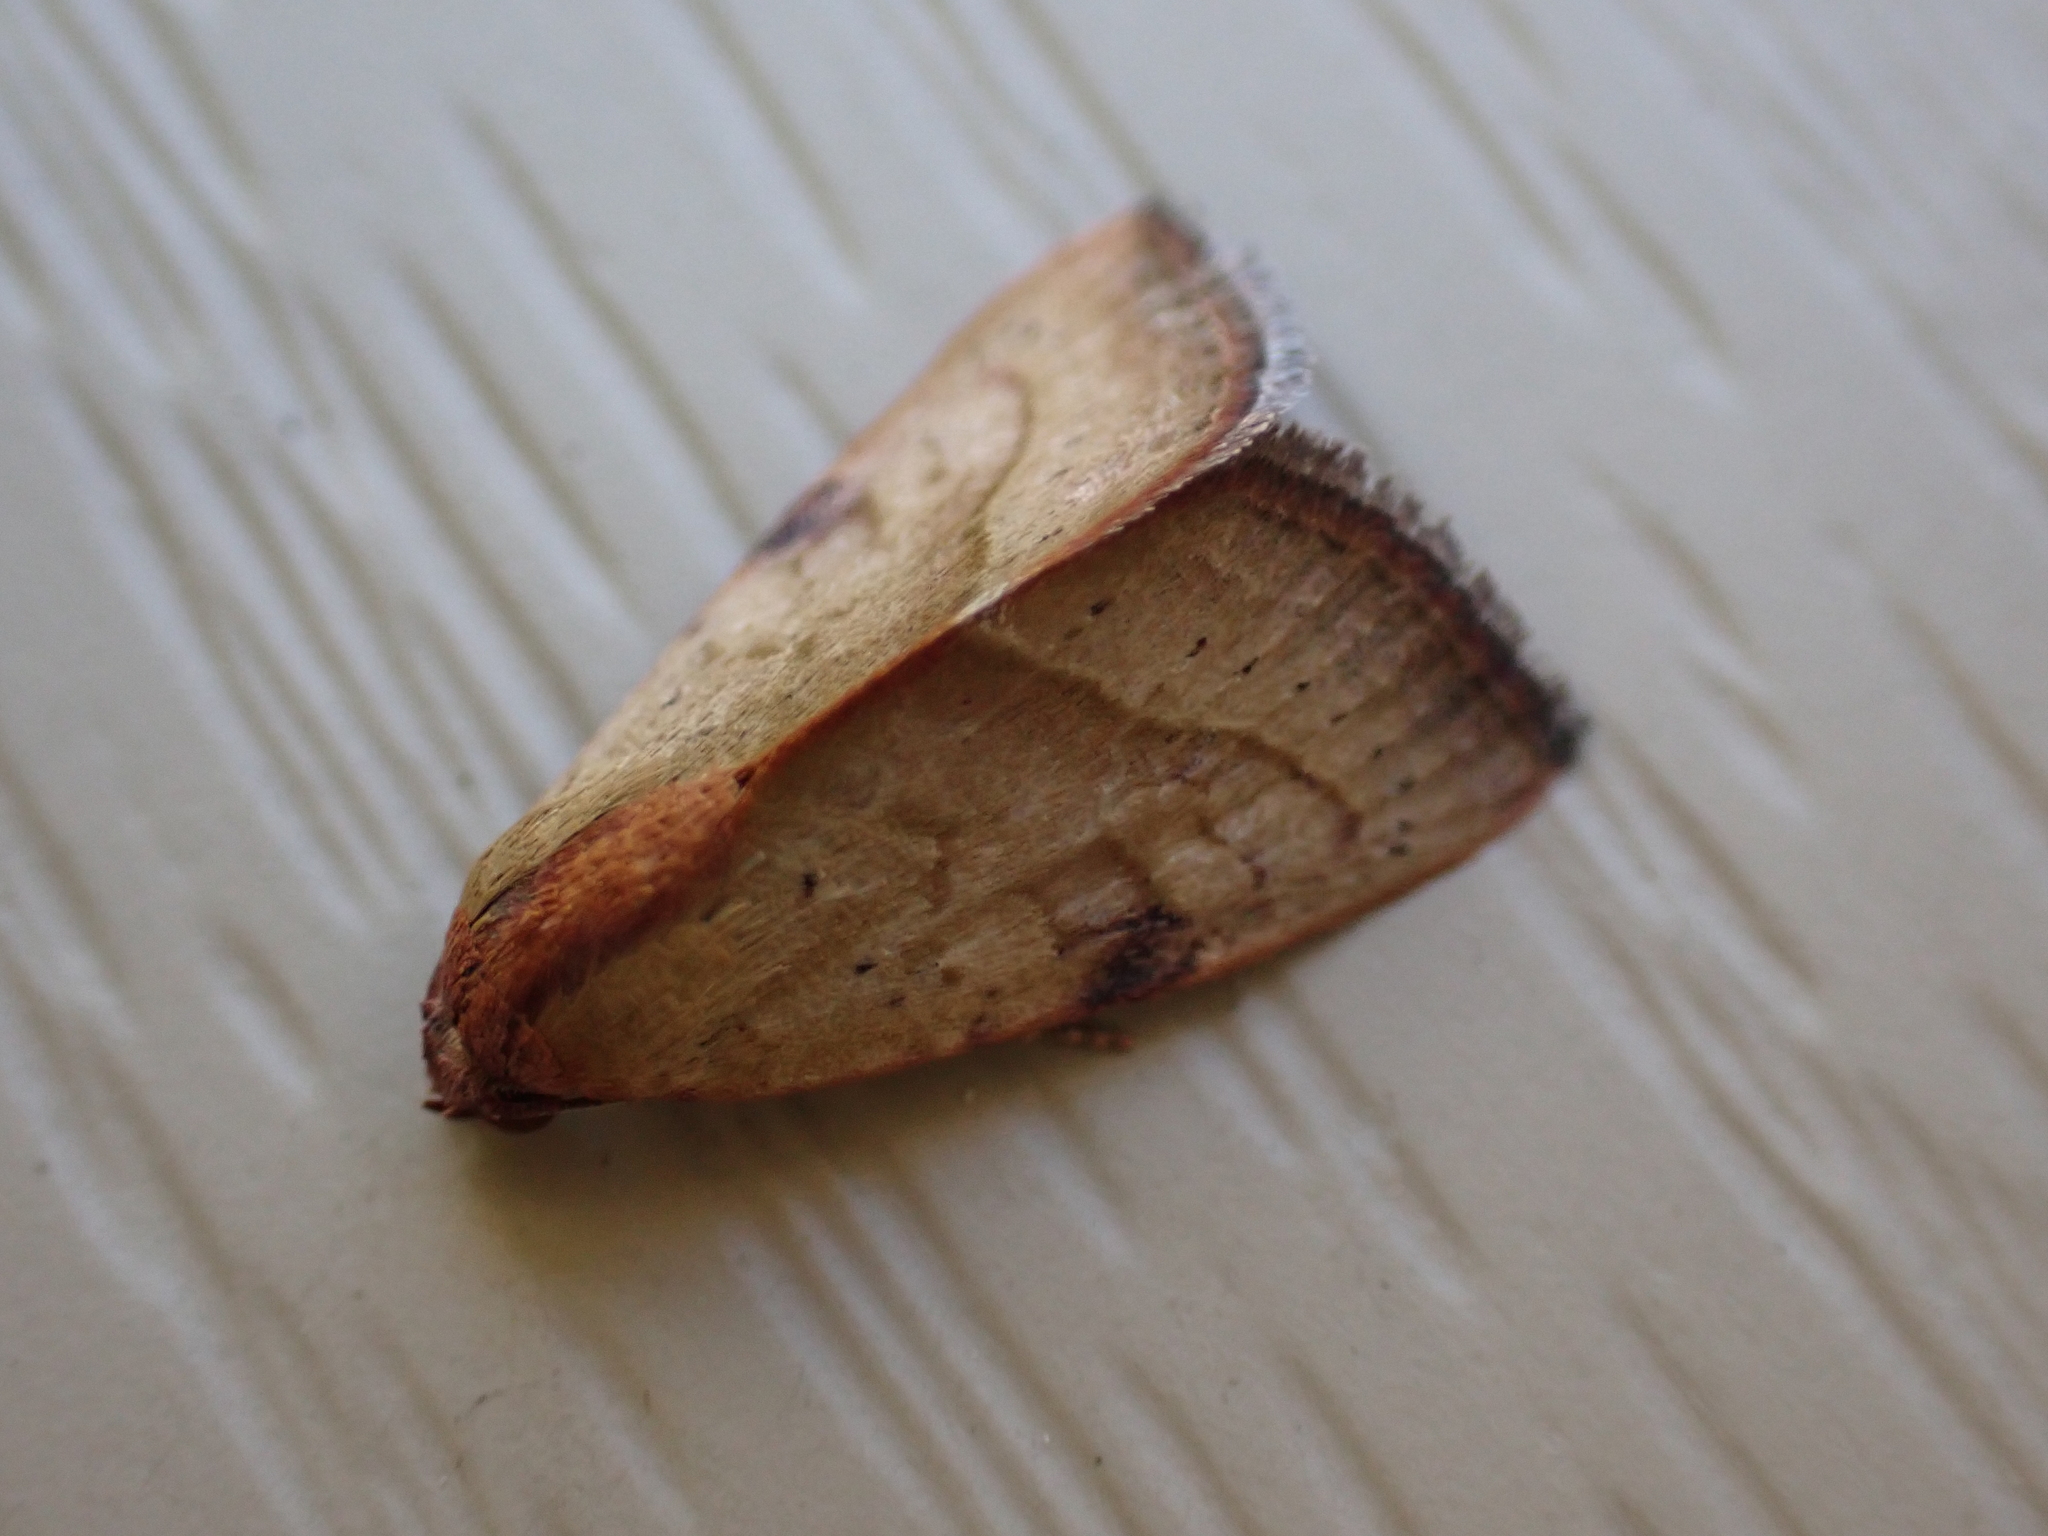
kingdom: Animalia
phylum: Arthropoda
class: Insecta
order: Lepidoptera
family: Noctuidae
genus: Galgula
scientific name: Galgula partita
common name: Wedgeling
